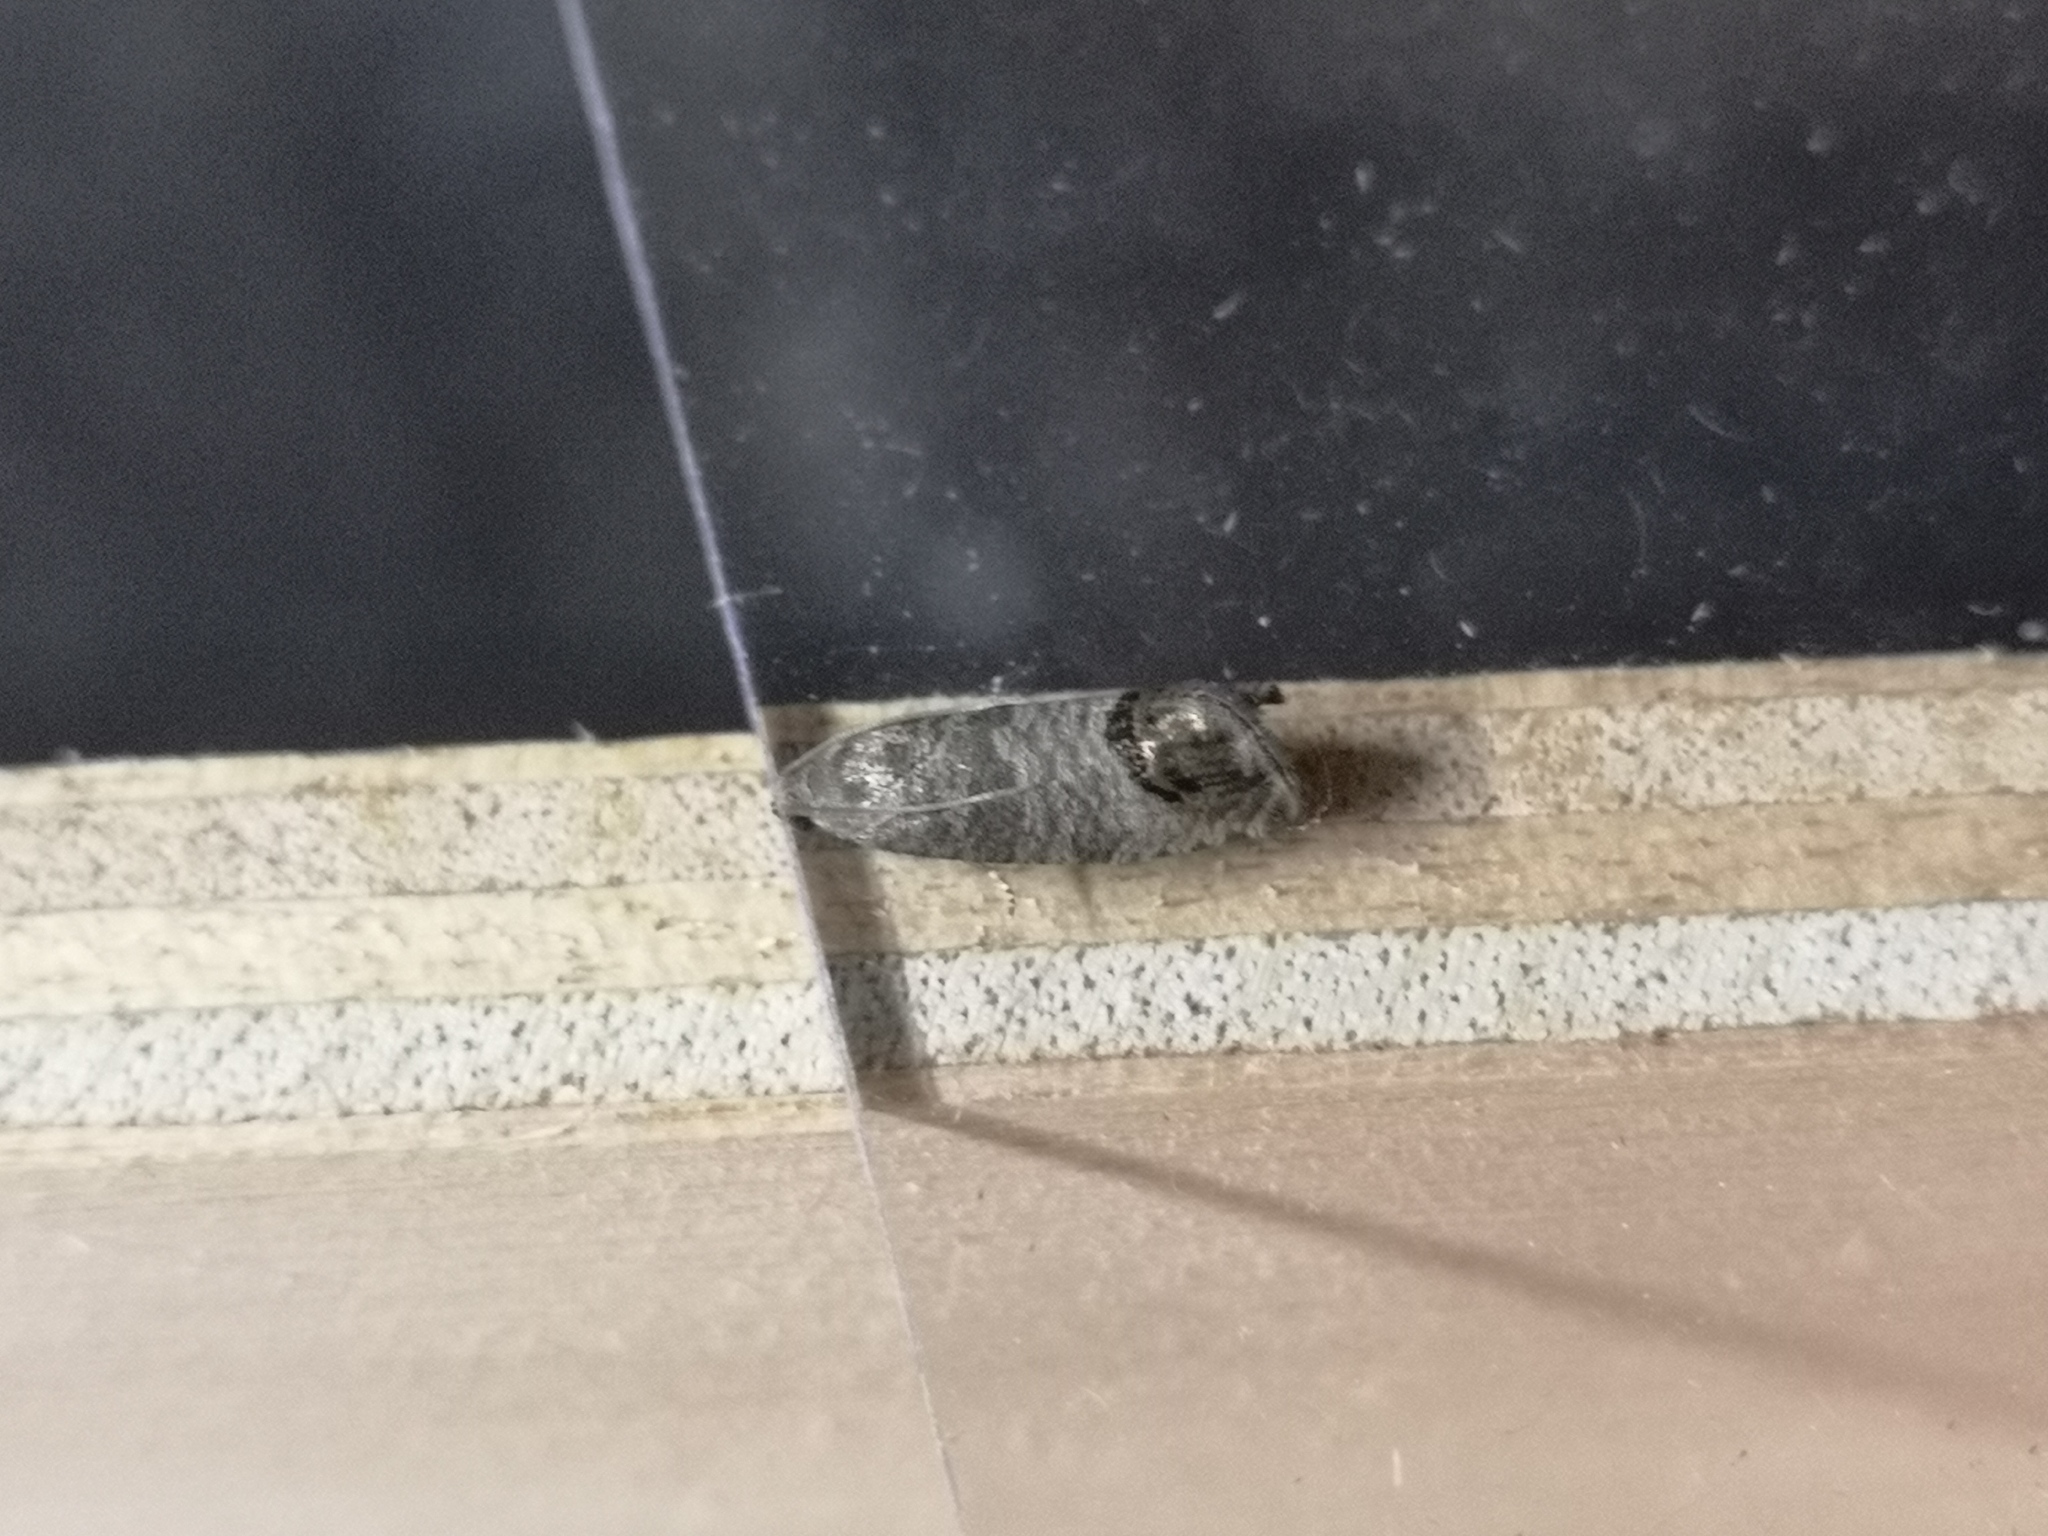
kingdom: Animalia
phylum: Arthropoda
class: Insecta
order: Lepidoptera
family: Tortricidae
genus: Cydia
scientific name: Cydia pomonella
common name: Codling moth
